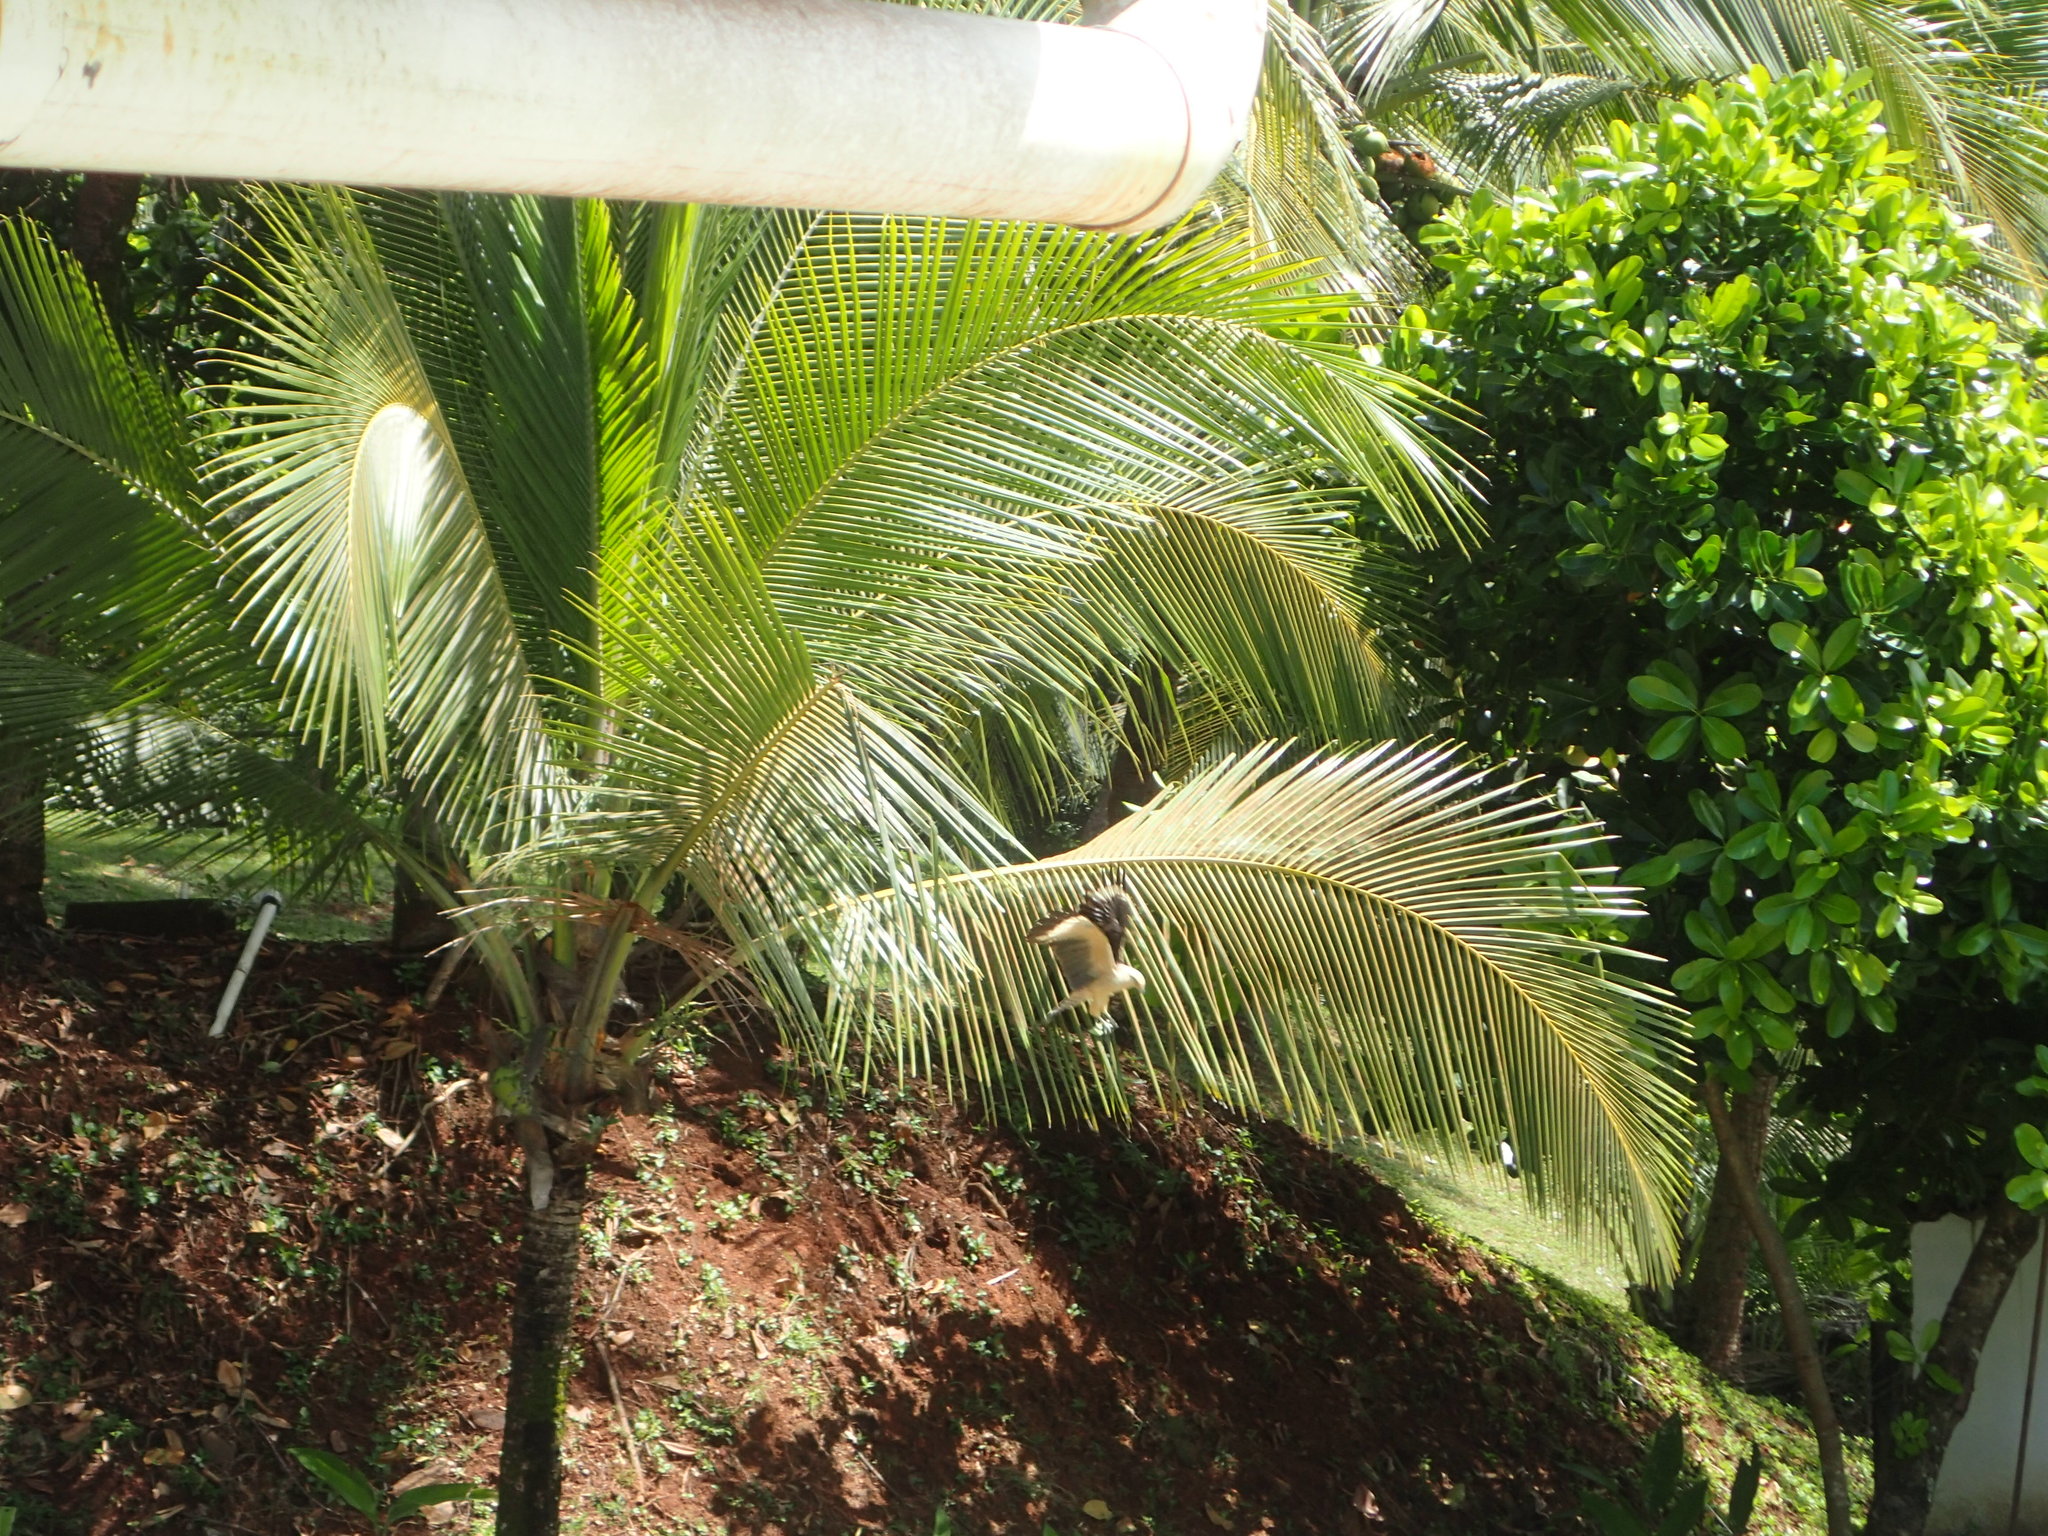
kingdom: Animalia
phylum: Chordata
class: Aves
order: Falconiformes
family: Falconidae
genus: Daptrius
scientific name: Daptrius
